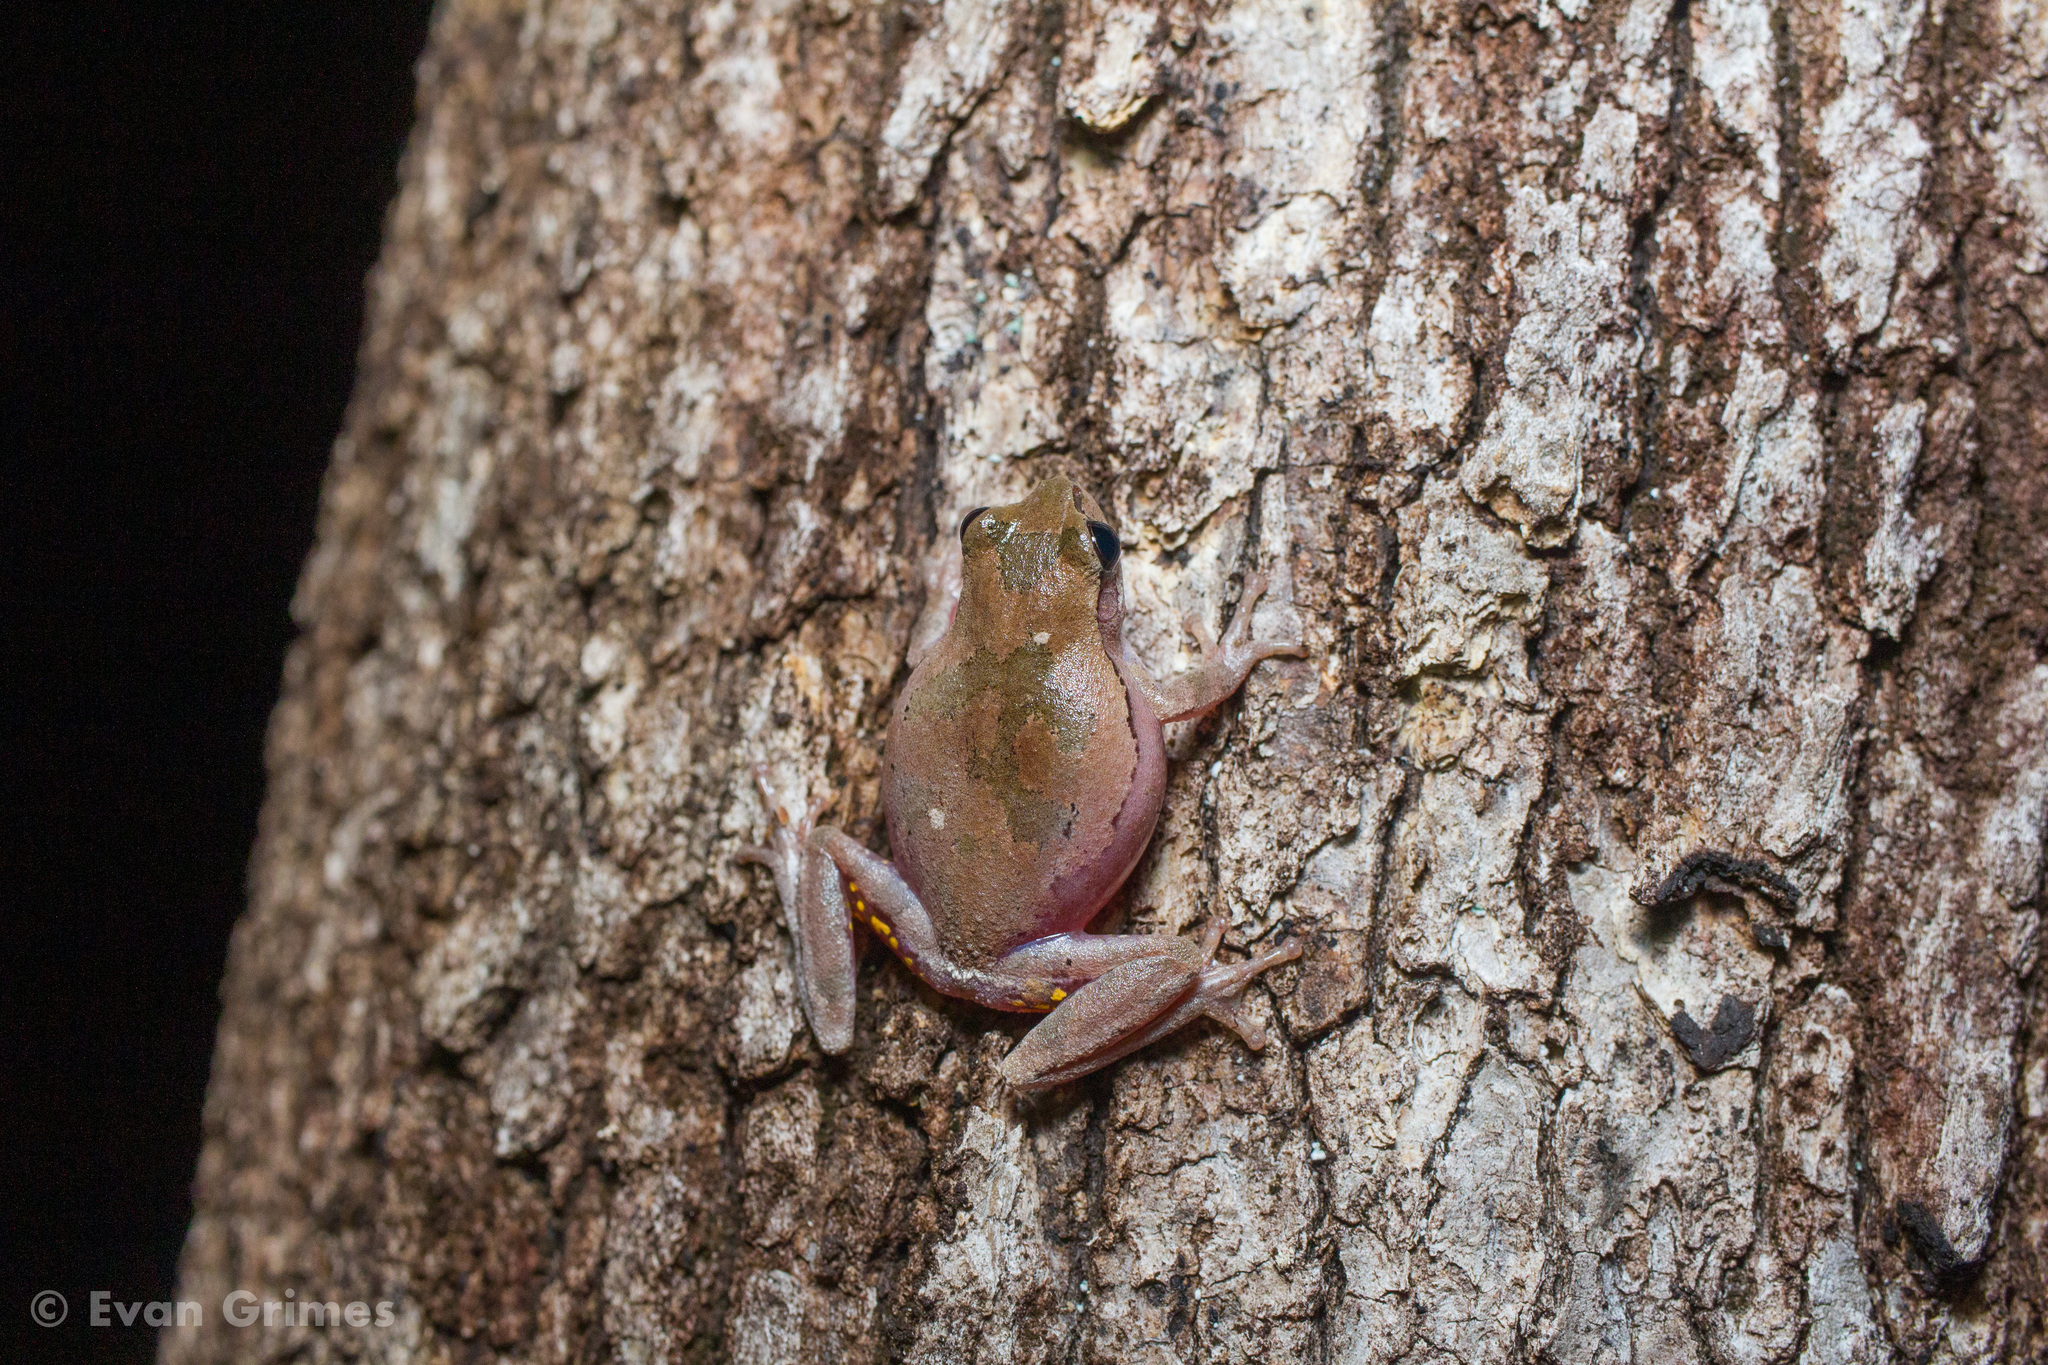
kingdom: Animalia
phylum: Chordata
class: Amphibia
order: Anura
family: Hylidae
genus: Hyla
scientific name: Hyla femoralis
